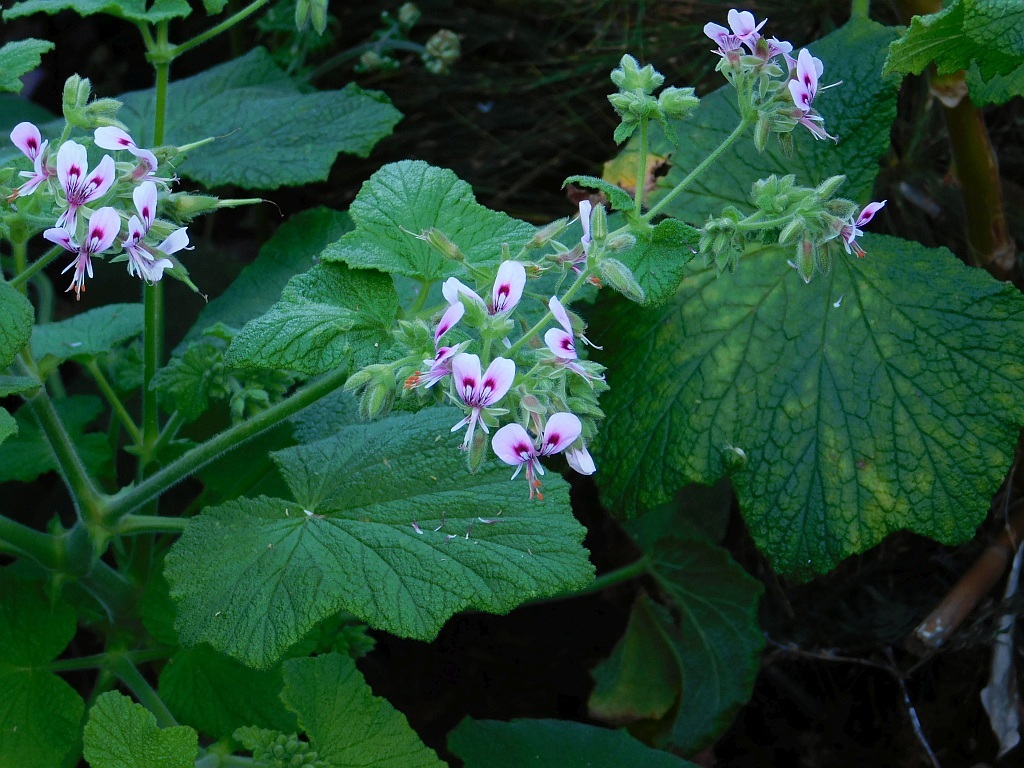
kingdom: Plantae
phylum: Tracheophyta
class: Magnoliopsida
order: Geraniales
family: Geraniaceae
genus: Pelargonium
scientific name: Pelargonium papilionaceum
